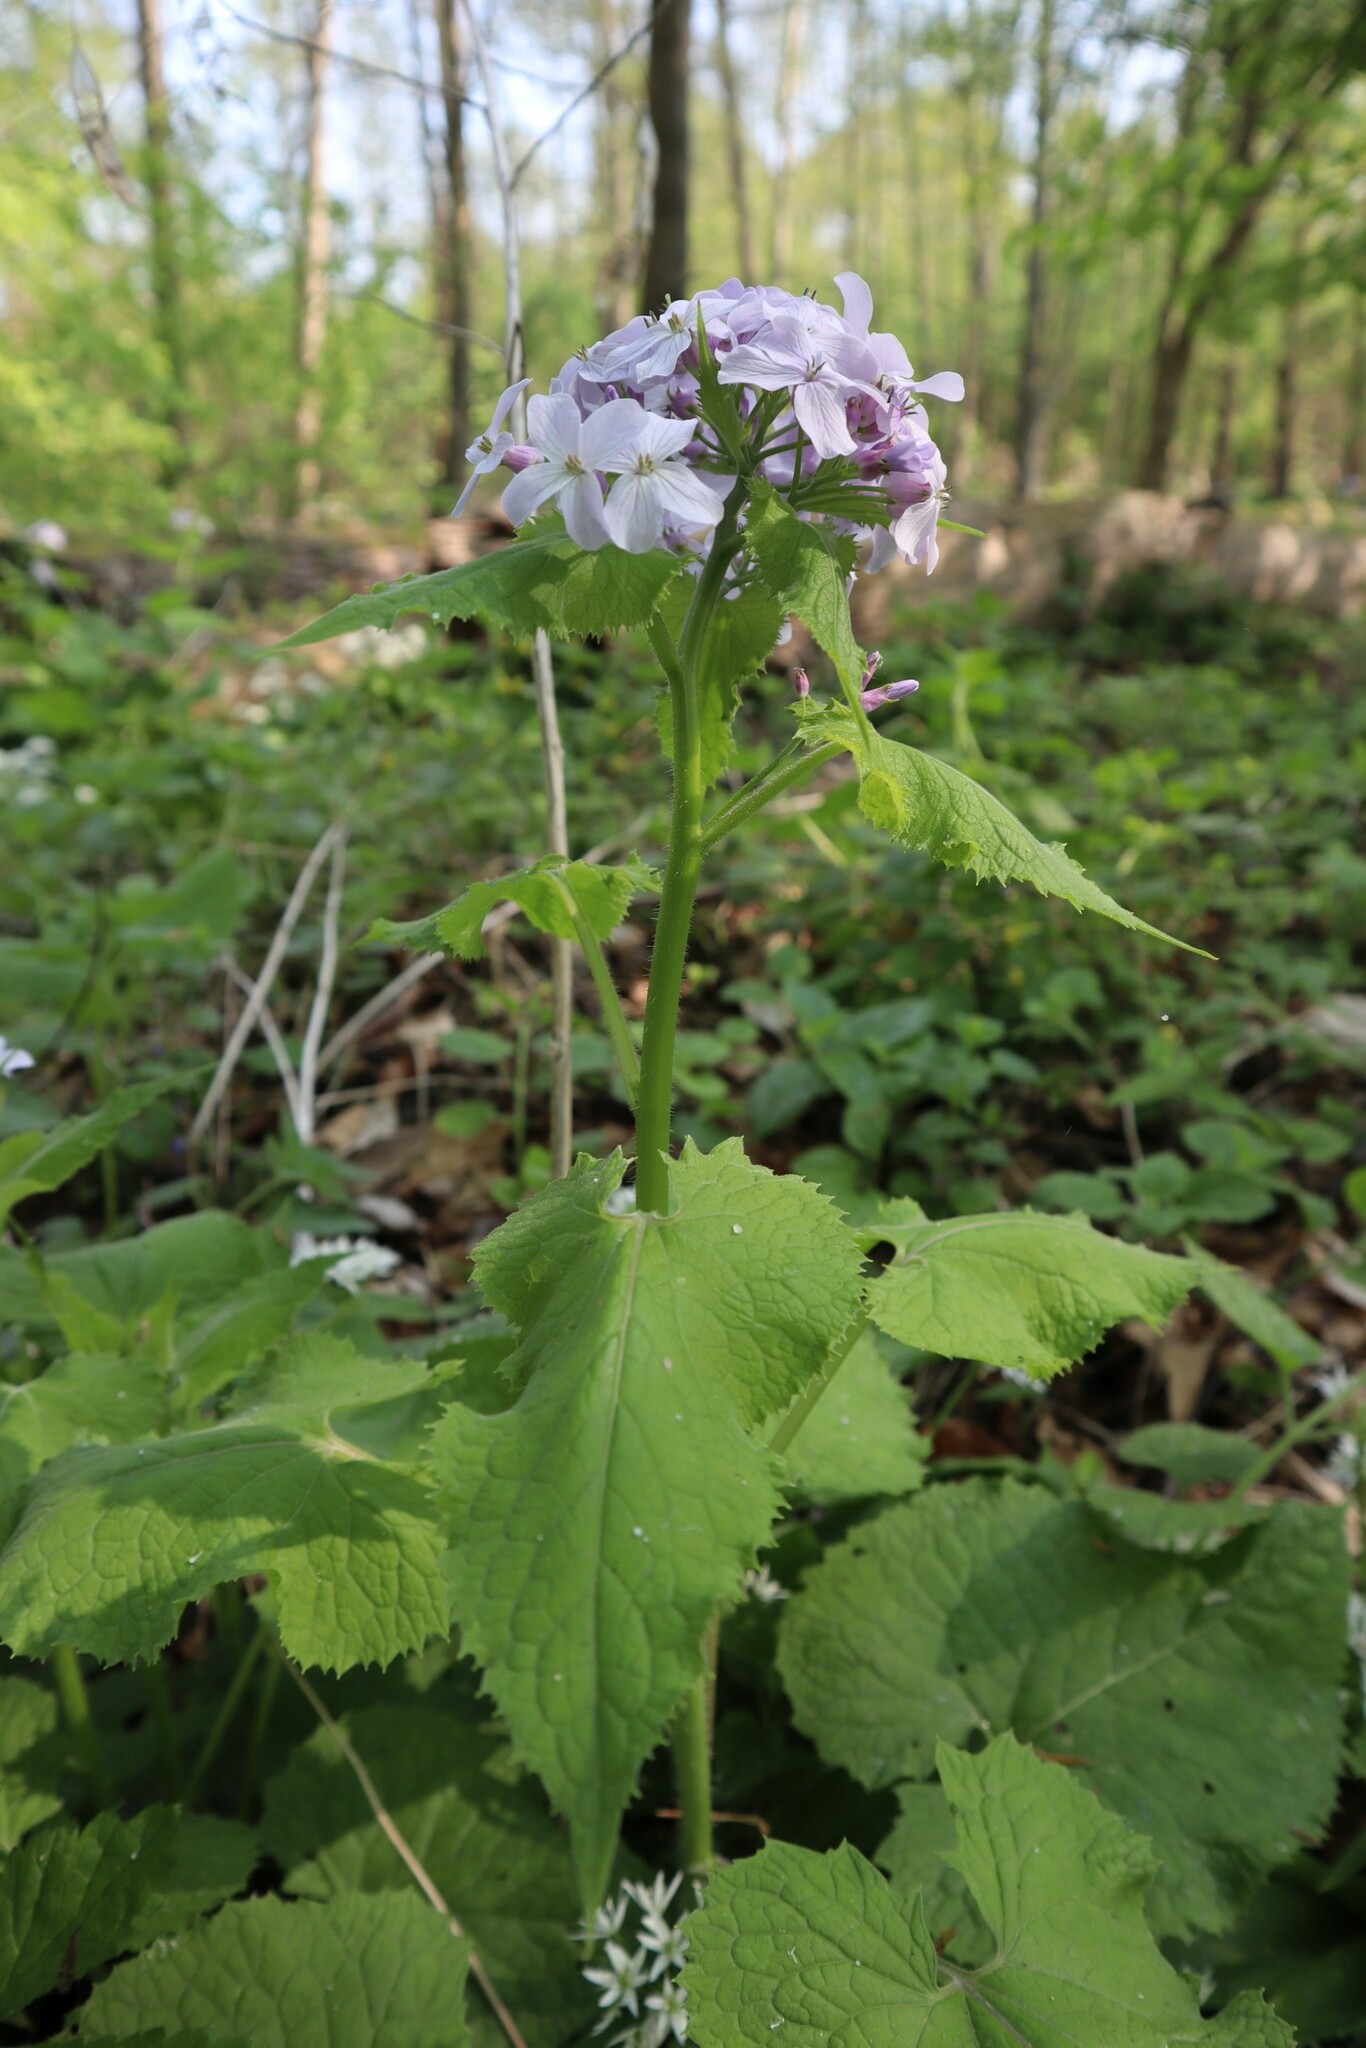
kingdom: Plantae
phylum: Tracheophyta
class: Magnoliopsida
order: Brassicales
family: Brassicaceae
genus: Lunaria
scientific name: Lunaria rediviva
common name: Perennial honesty
